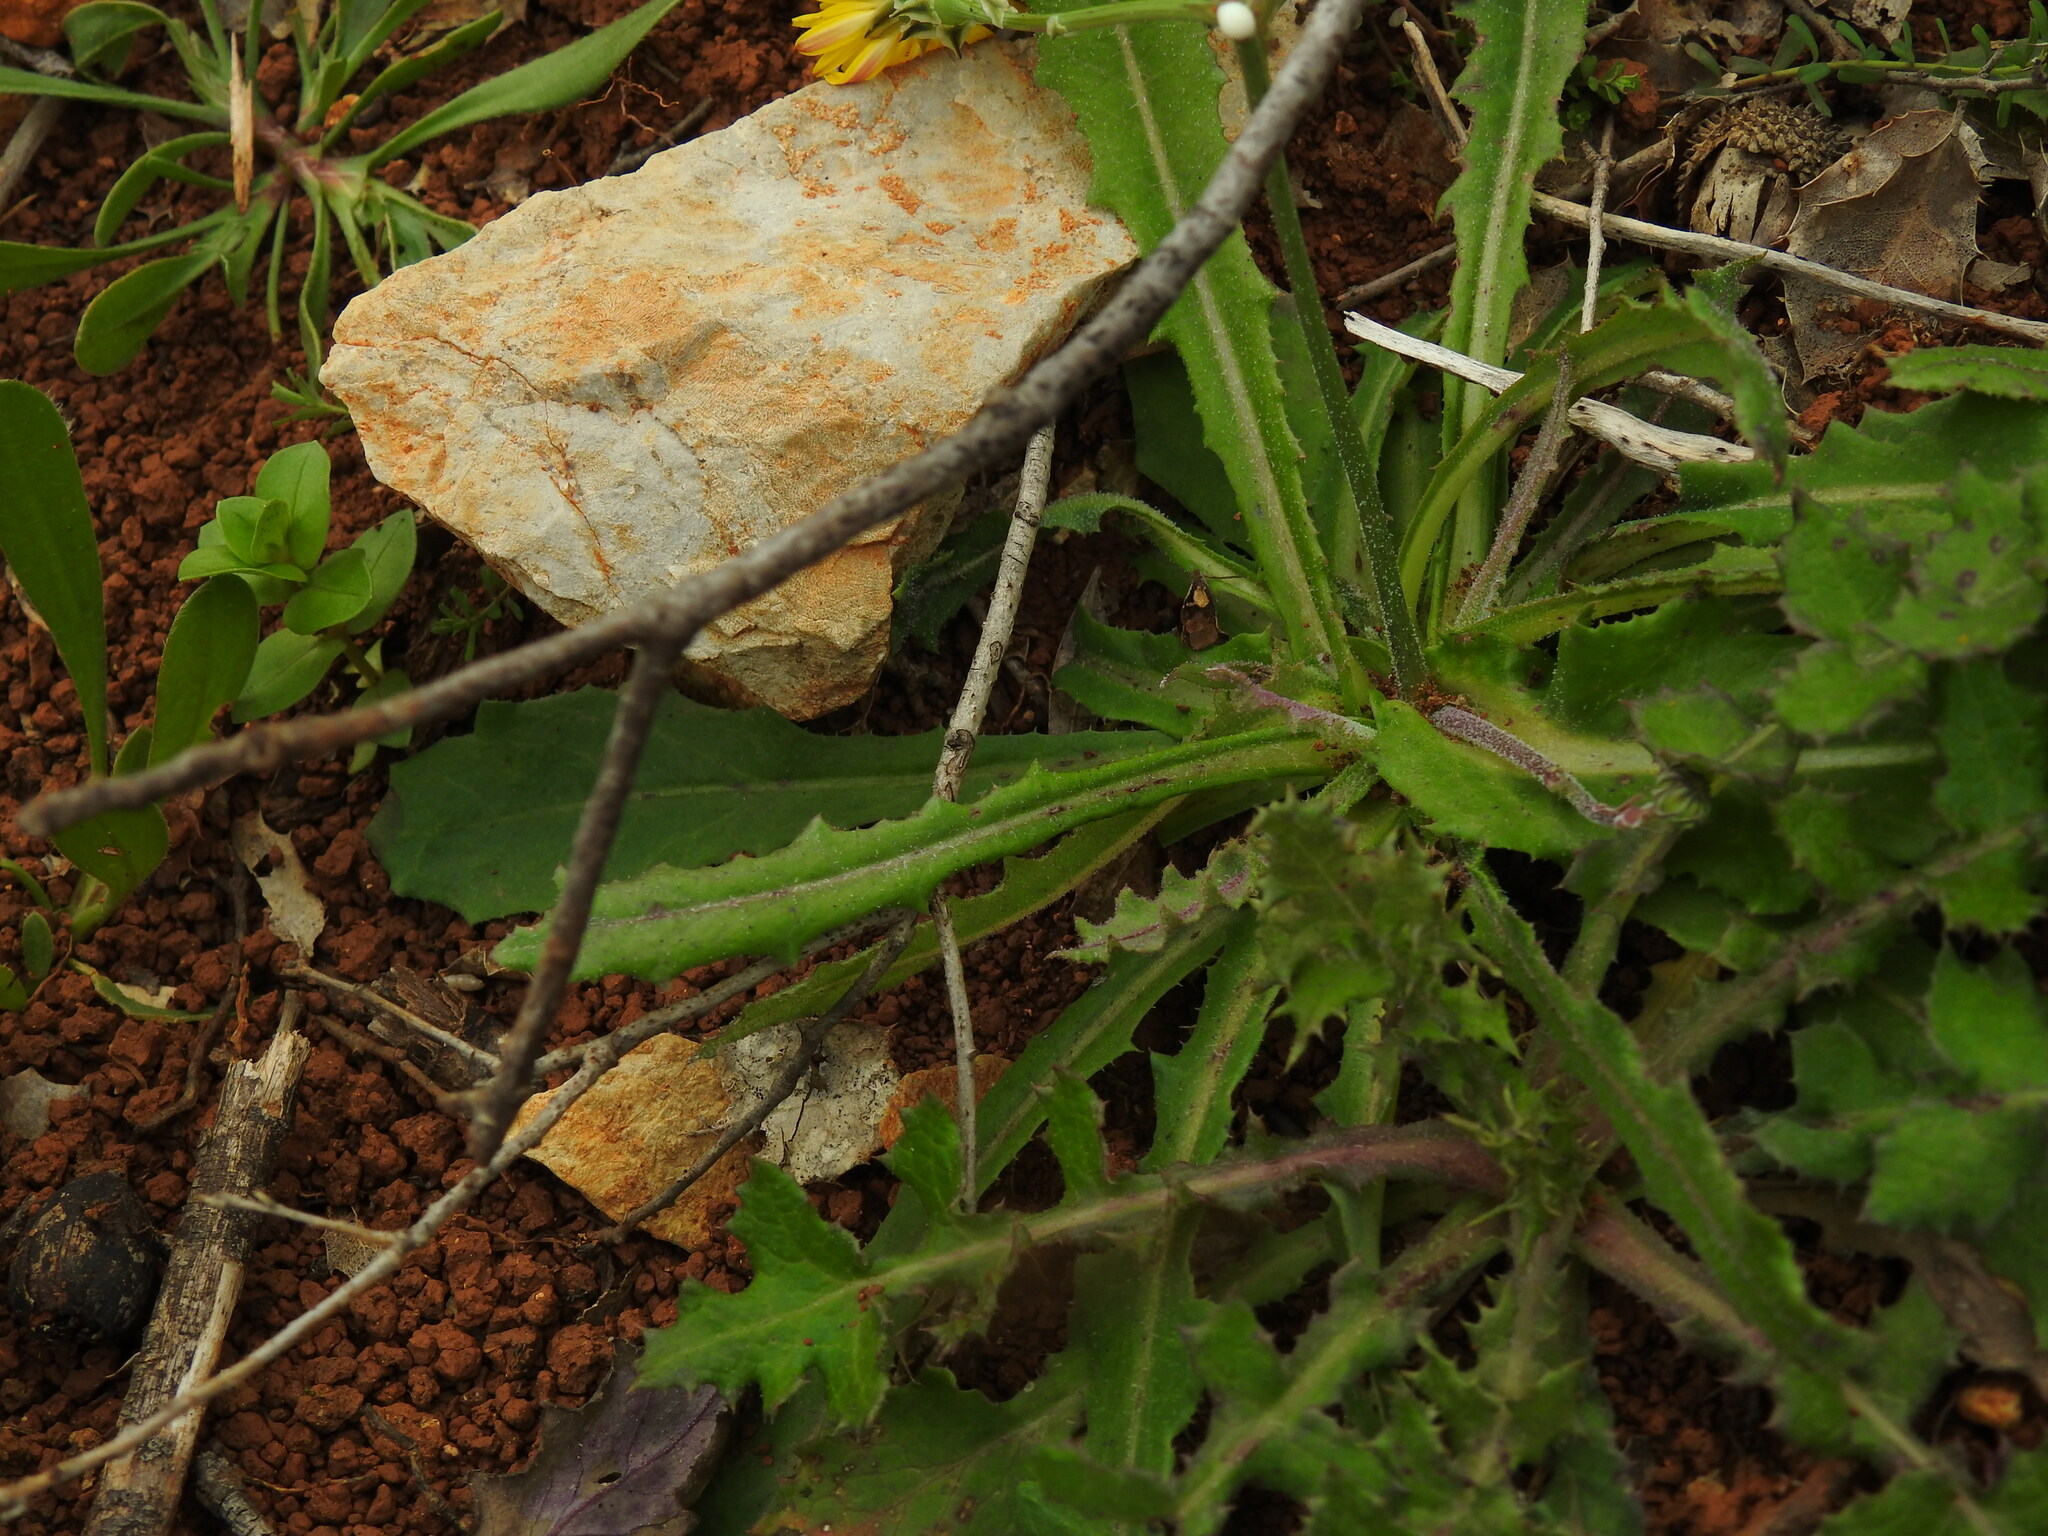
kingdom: Plantae
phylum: Tracheophyta
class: Magnoliopsida
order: Asterales
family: Asteraceae
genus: Reichardia
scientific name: Reichardia intermedia
